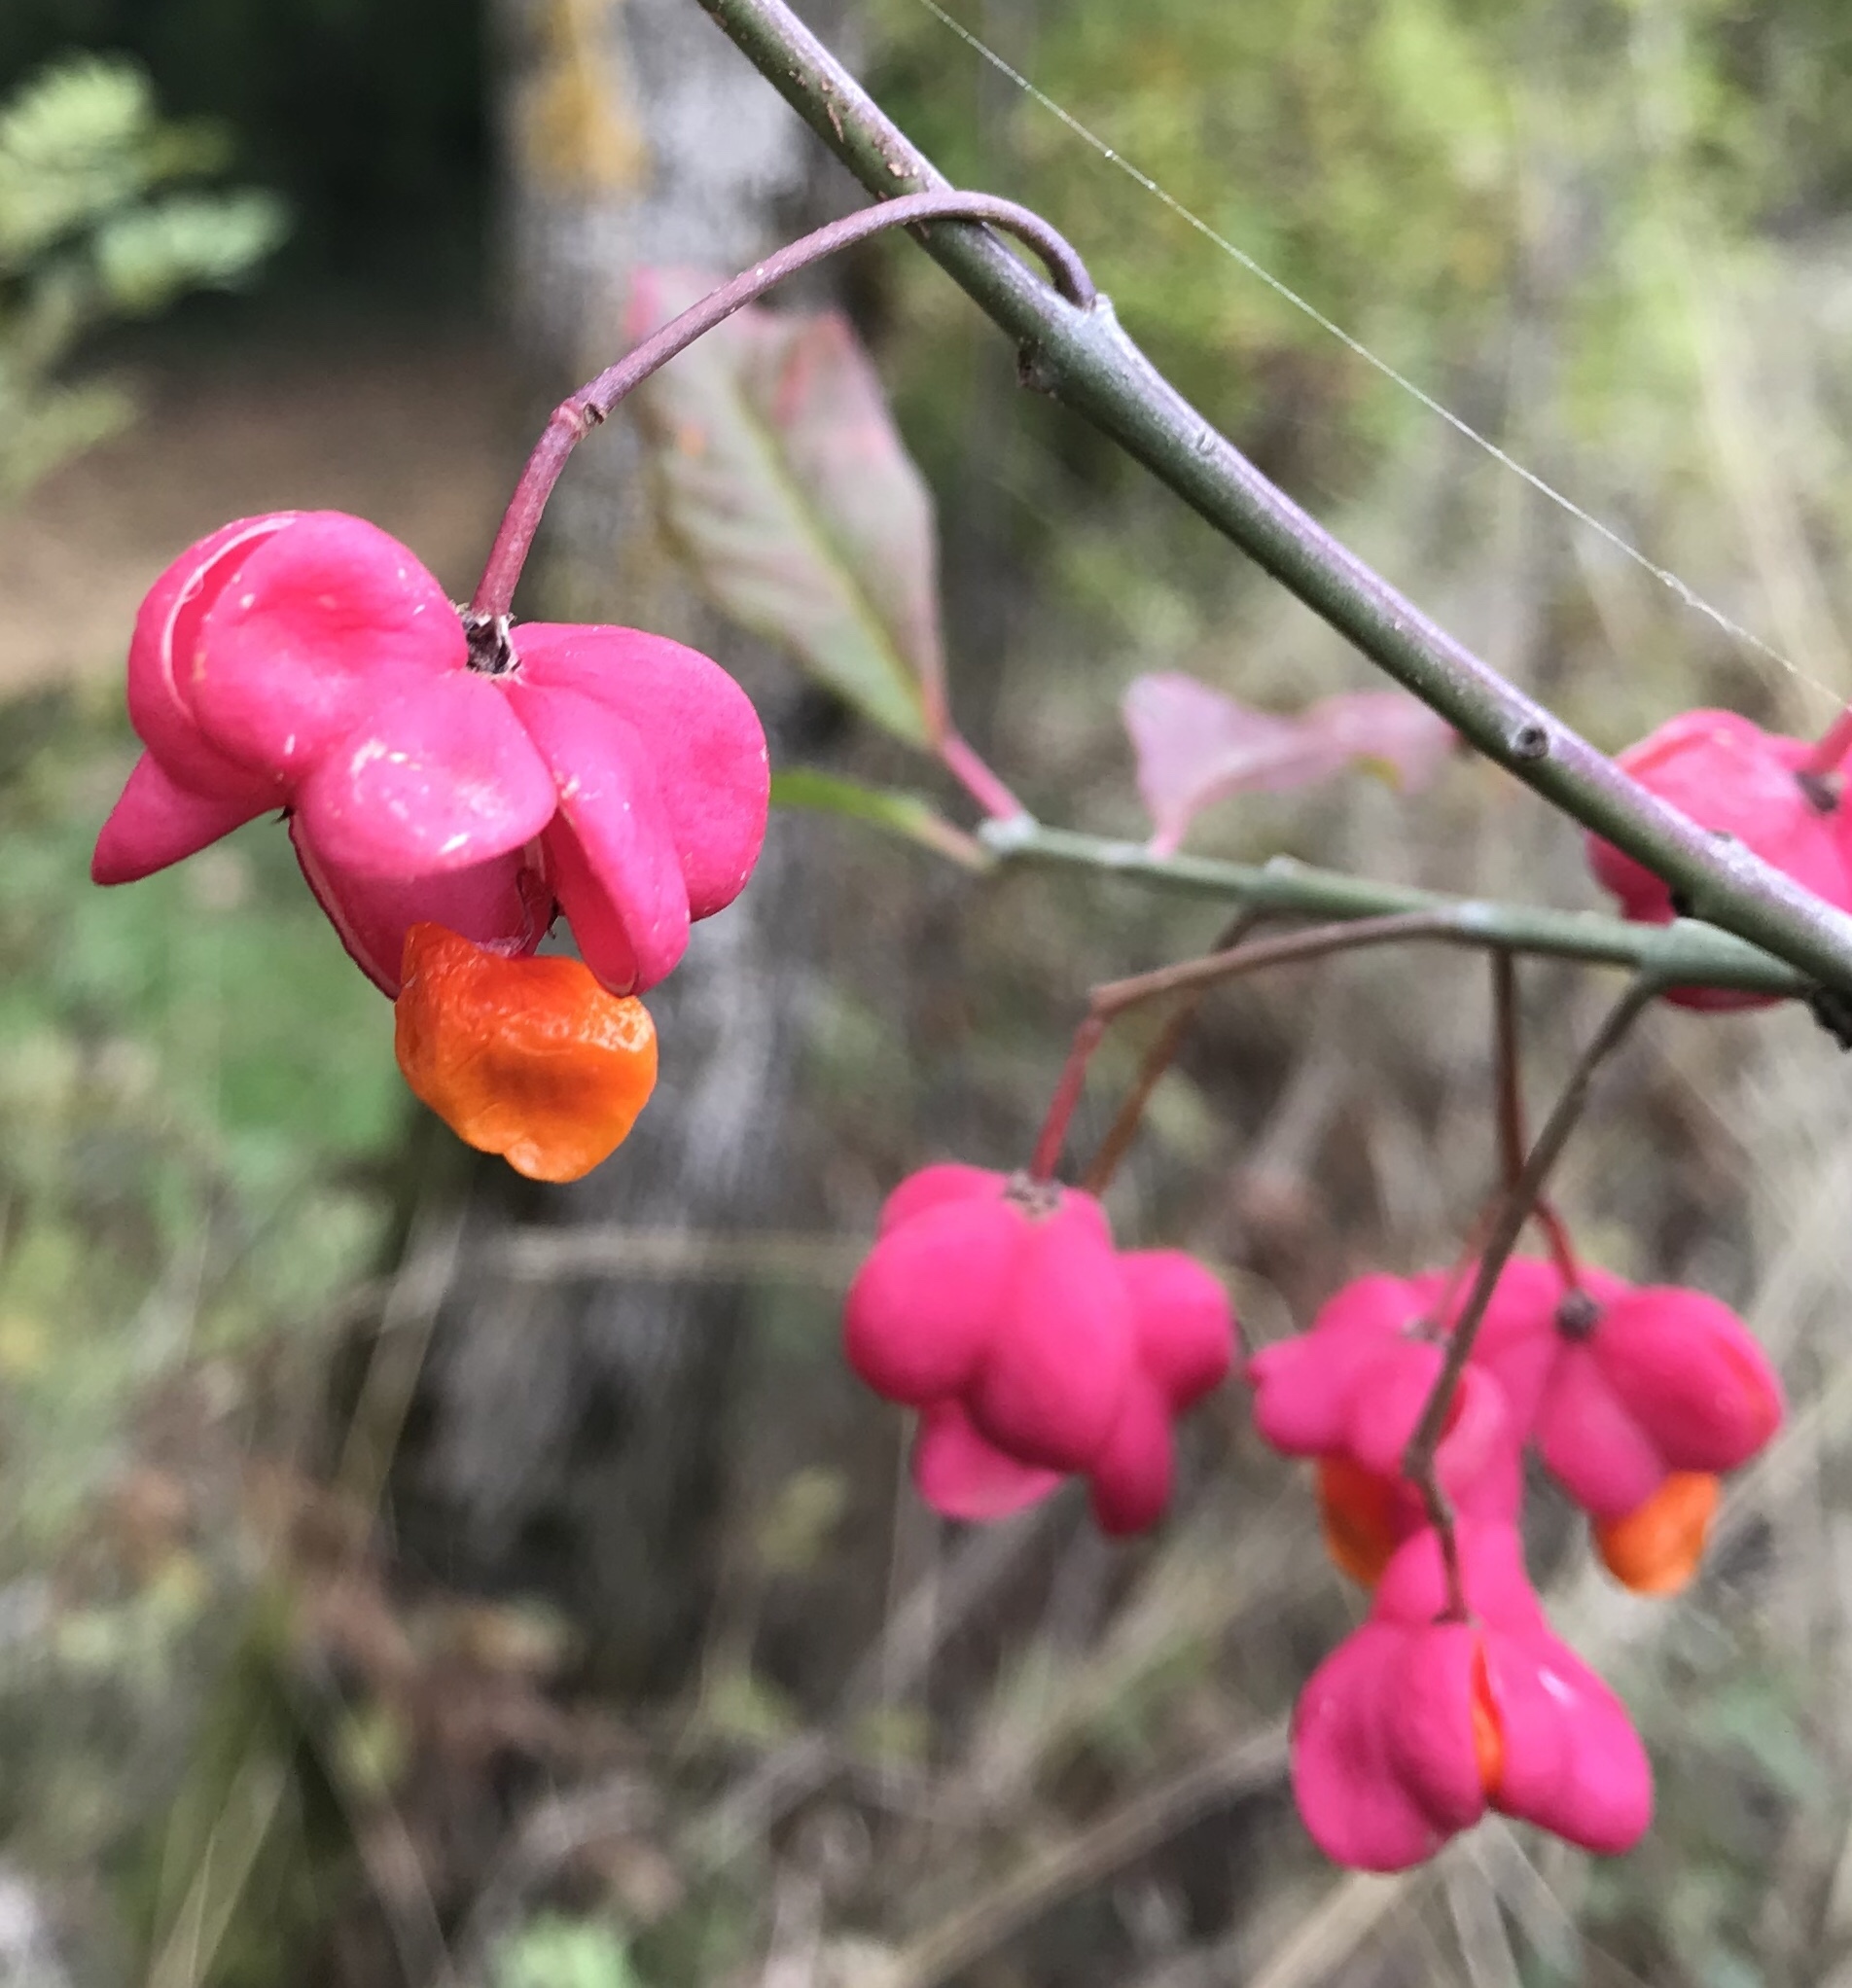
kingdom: Plantae
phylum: Tracheophyta
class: Magnoliopsida
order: Celastrales
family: Celastraceae
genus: Euonymus
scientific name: Euonymus europaeus
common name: Spindle
